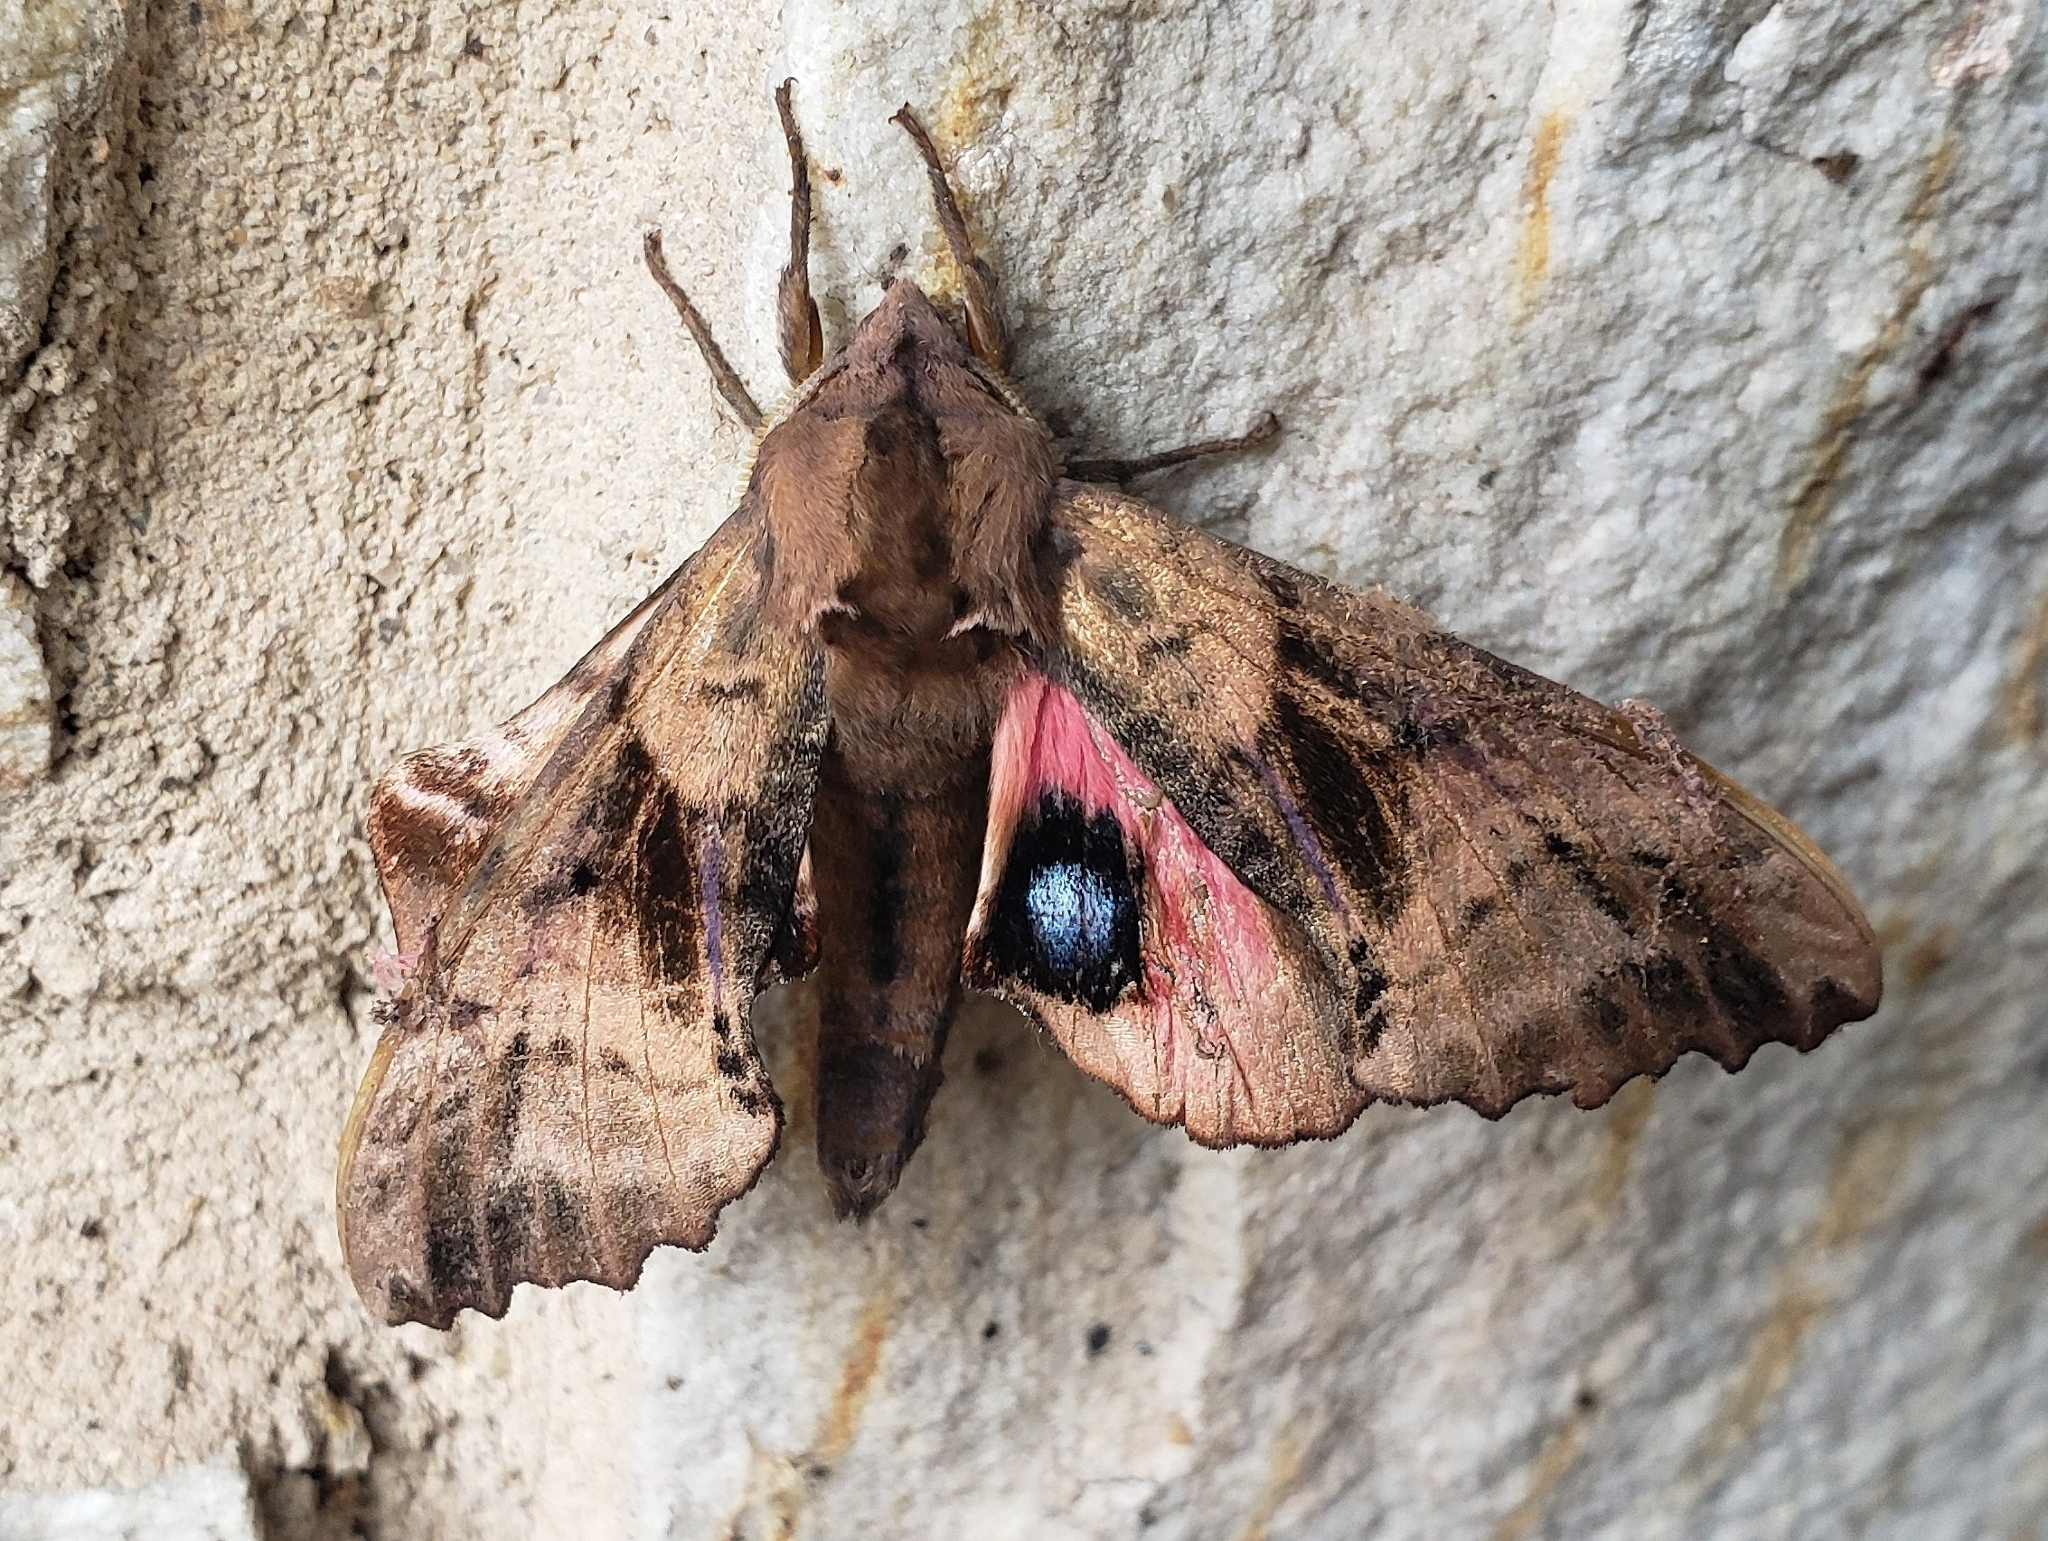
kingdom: Animalia
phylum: Arthropoda
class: Insecta
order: Lepidoptera
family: Sphingidae
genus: Paonias
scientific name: Paonias excaecata
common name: Blind-eyed sphinx
